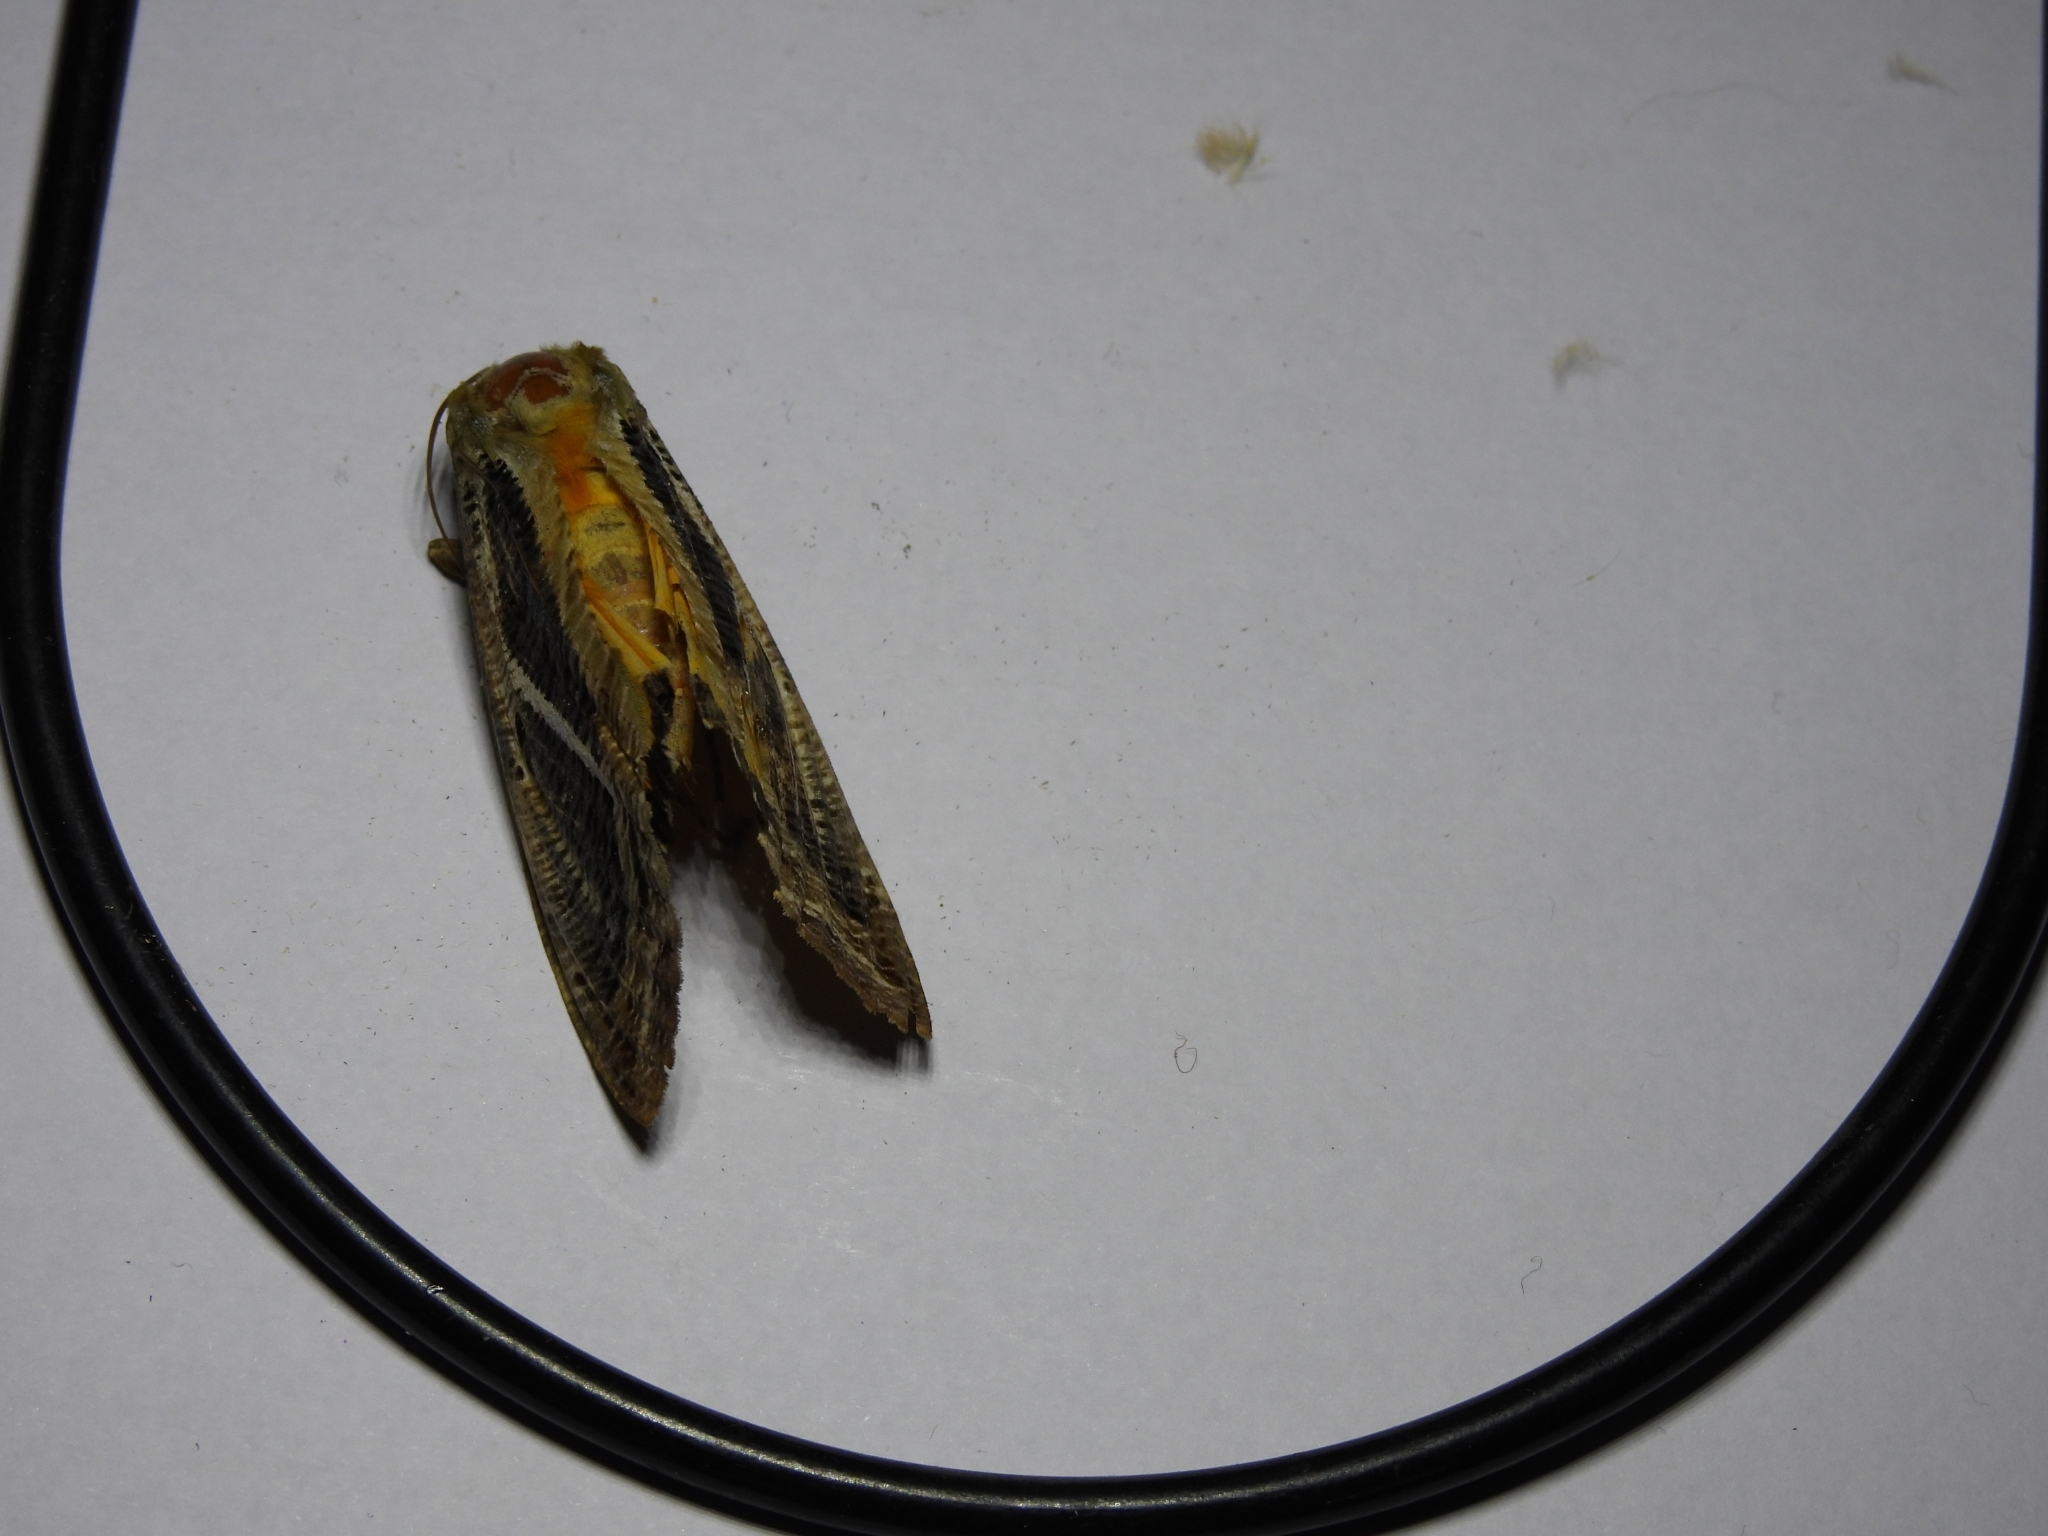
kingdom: Animalia
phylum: Arthropoda
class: Insecta
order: Lepidoptera
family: Erebidae
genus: Eudocima
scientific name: Eudocima materna
